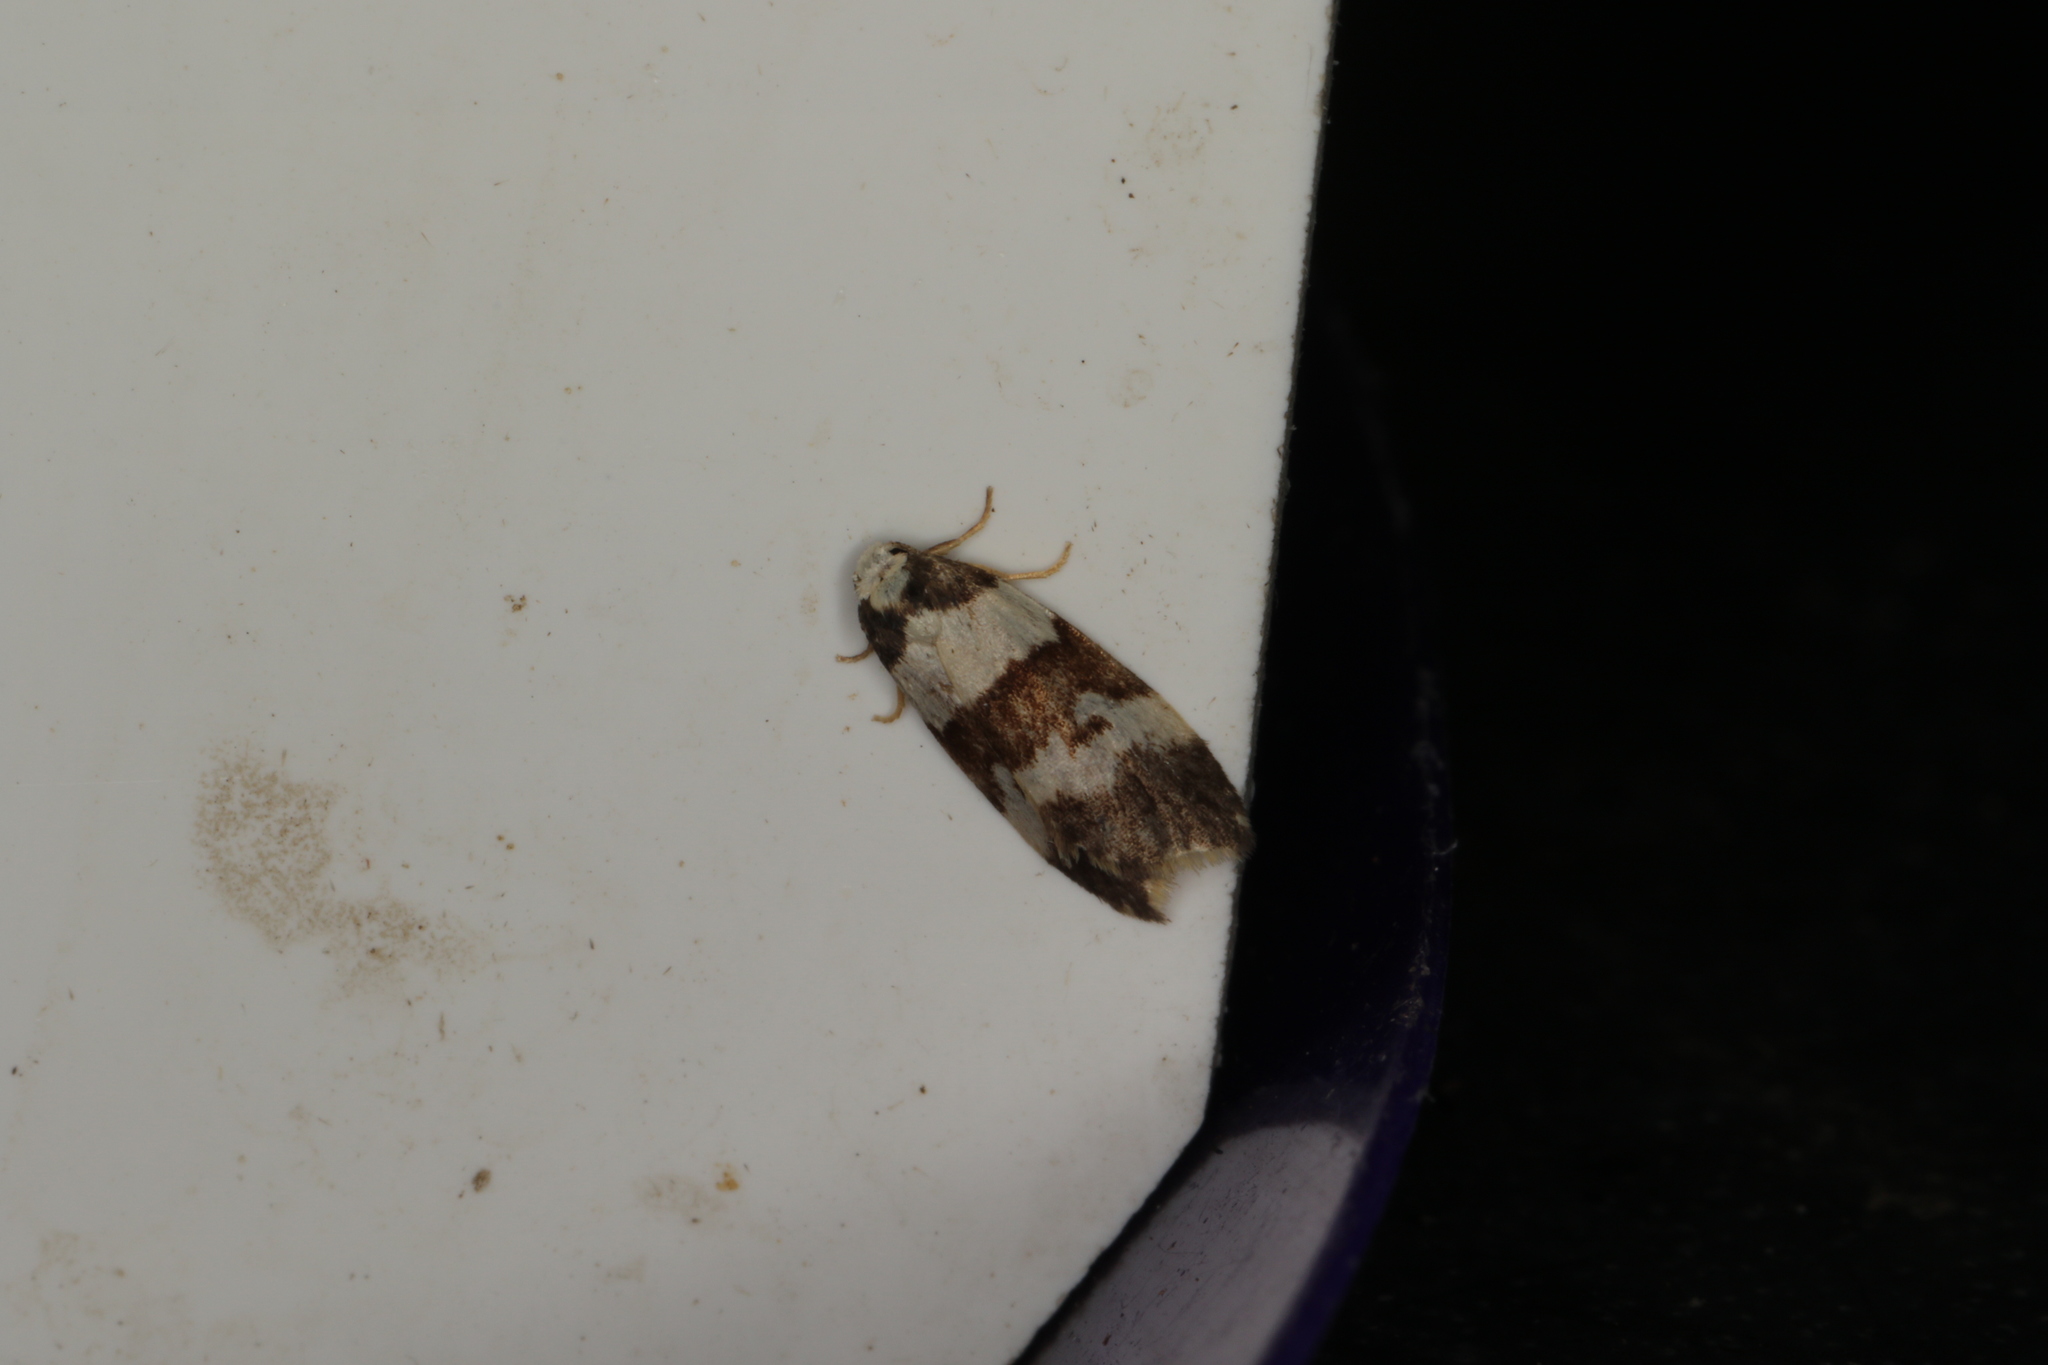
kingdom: Animalia
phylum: Arthropoda
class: Insecta
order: Lepidoptera
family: Erebidae
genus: Halone
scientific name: Halone sejuncta
